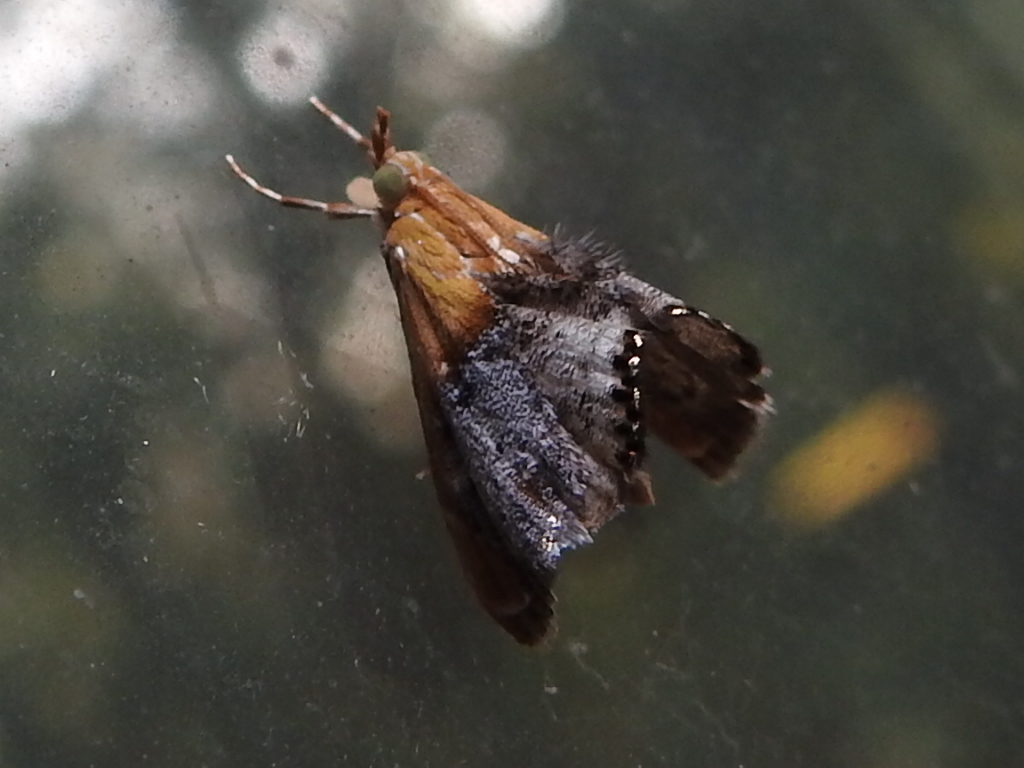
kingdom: Animalia
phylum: Arthropoda
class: Insecta
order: Lepidoptera
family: Crambidae
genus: Chalcoela
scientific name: Chalcoela iphitalis
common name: Sooty-winged chalcoela moth
